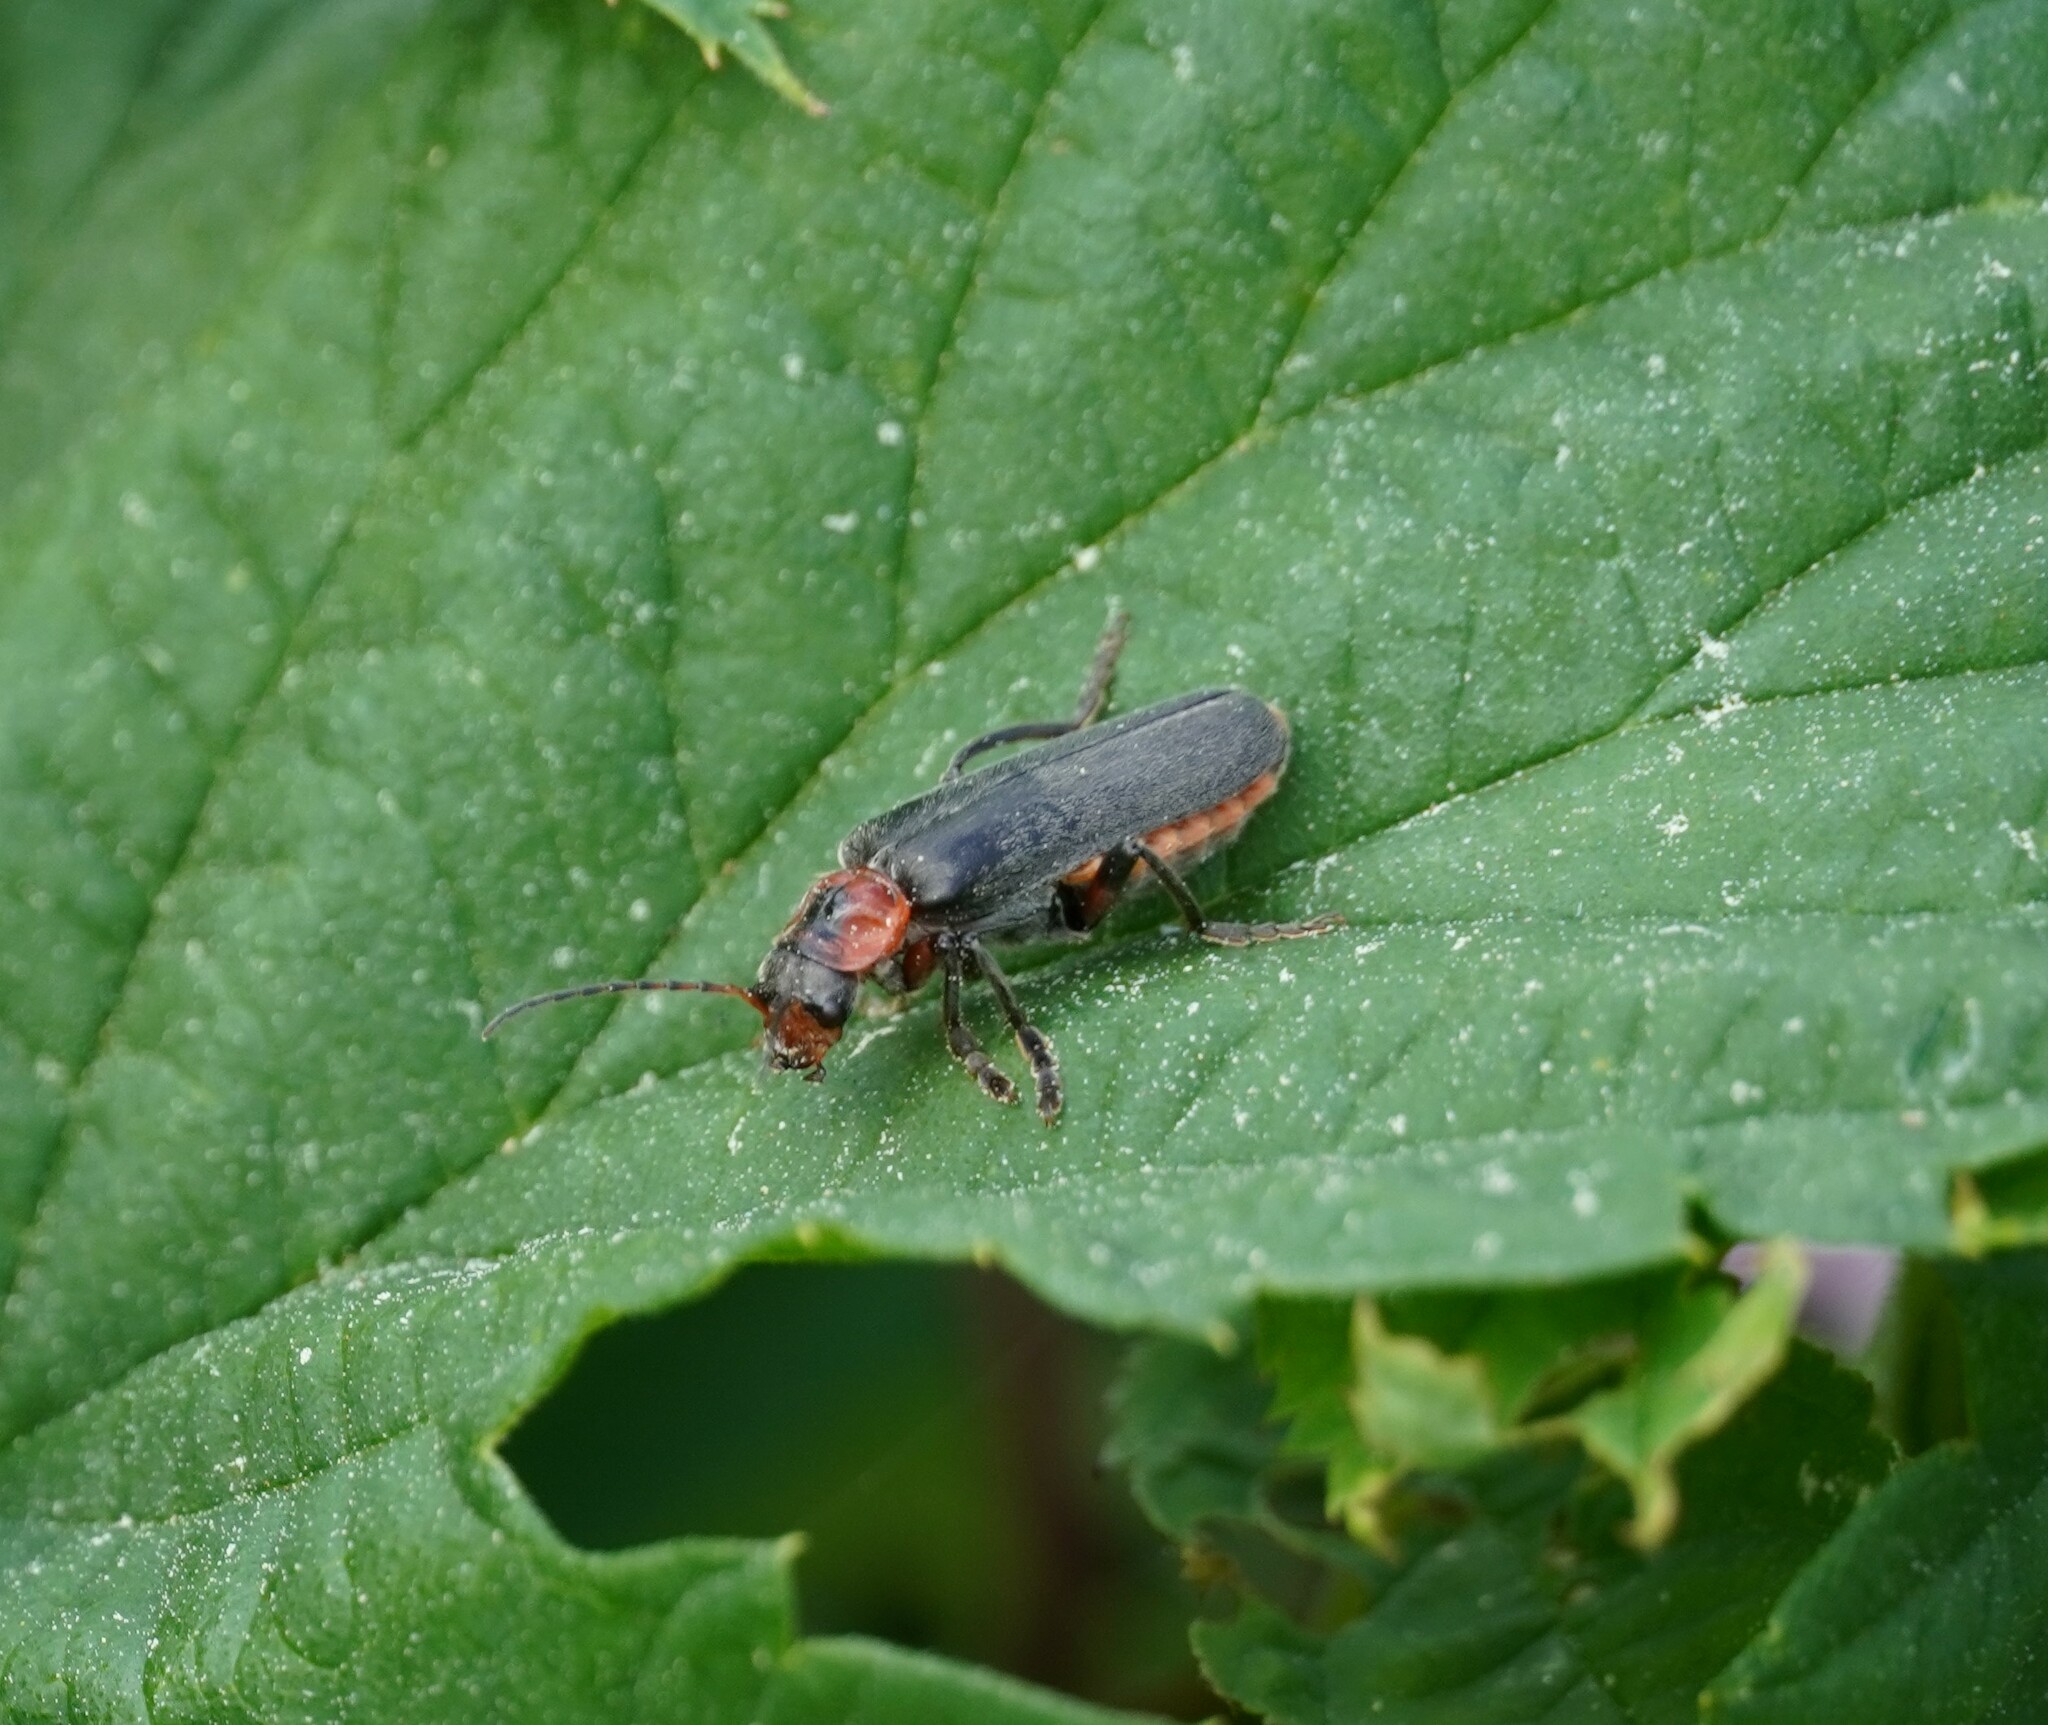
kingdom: Animalia
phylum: Arthropoda
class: Insecta
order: Coleoptera
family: Cantharidae
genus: Cantharis
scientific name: Cantharis rustica
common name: Soldier beetle
